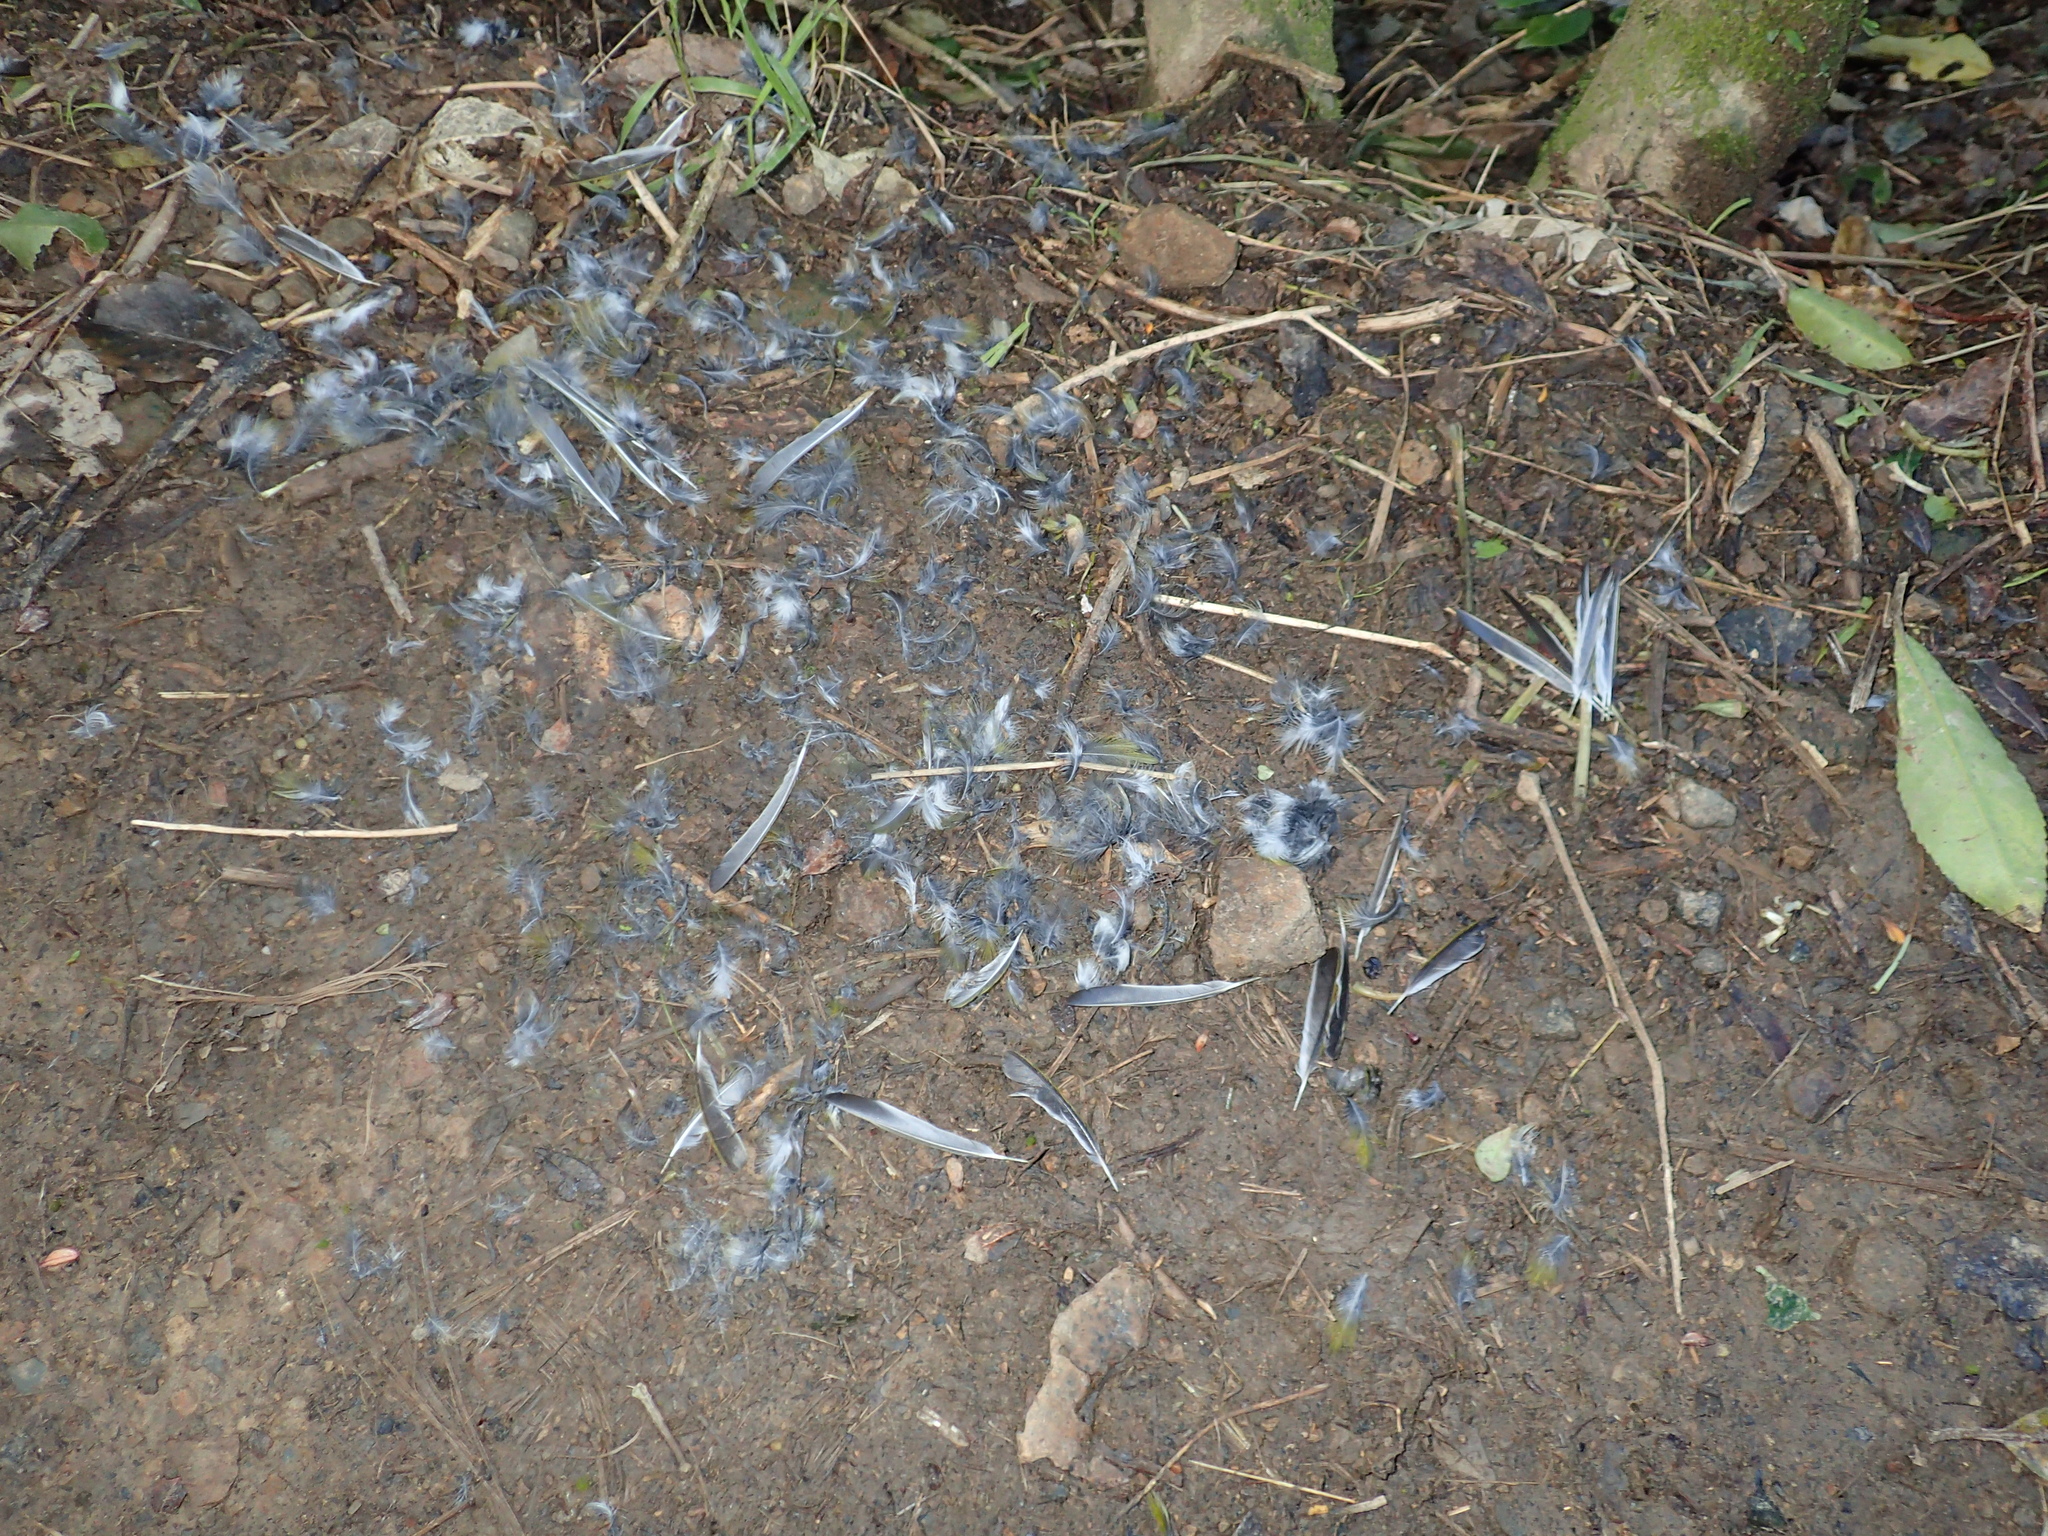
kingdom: Animalia
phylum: Chordata
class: Aves
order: Passeriformes
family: Zosteropidae
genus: Zosterops
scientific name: Zosterops lateralis
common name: Silvereye
